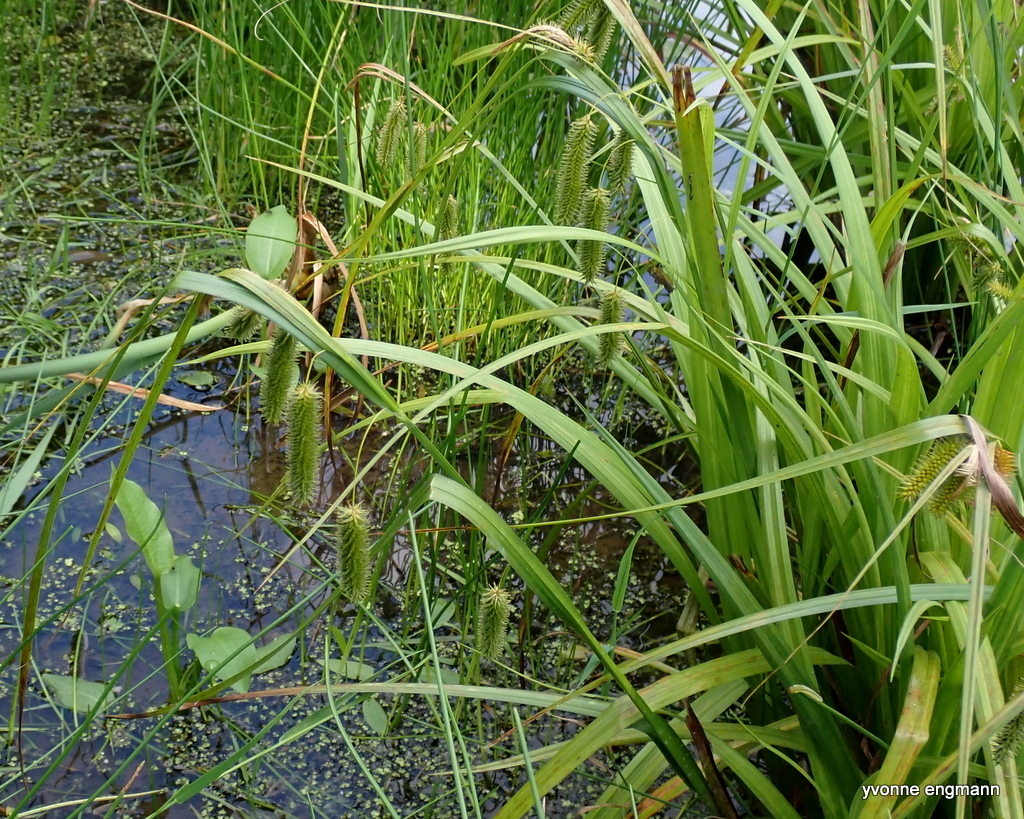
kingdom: Plantae
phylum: Tracheophyta
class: Liliopsida
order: Poales
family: Cyperaceae
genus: Carex
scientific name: Carex pseudocyperus
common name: Cyperus sedge
